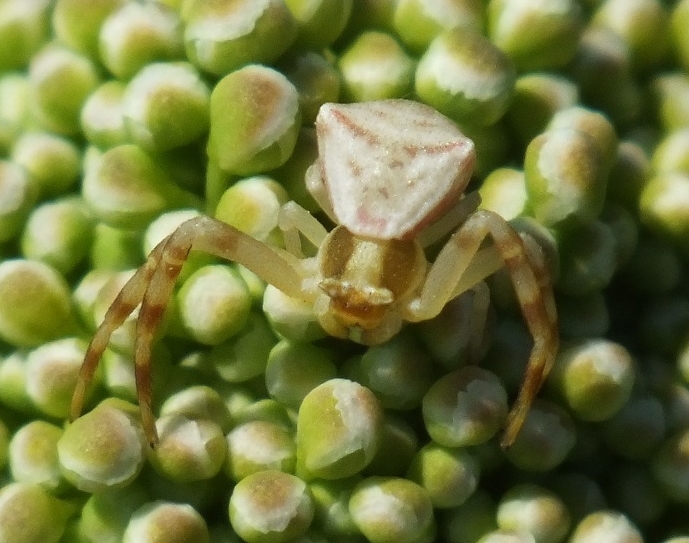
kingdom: Animalia
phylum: Arthropoda
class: Arachnida
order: Araneae
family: Thomisidae
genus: Thomisus
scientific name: Thomisus onustus
